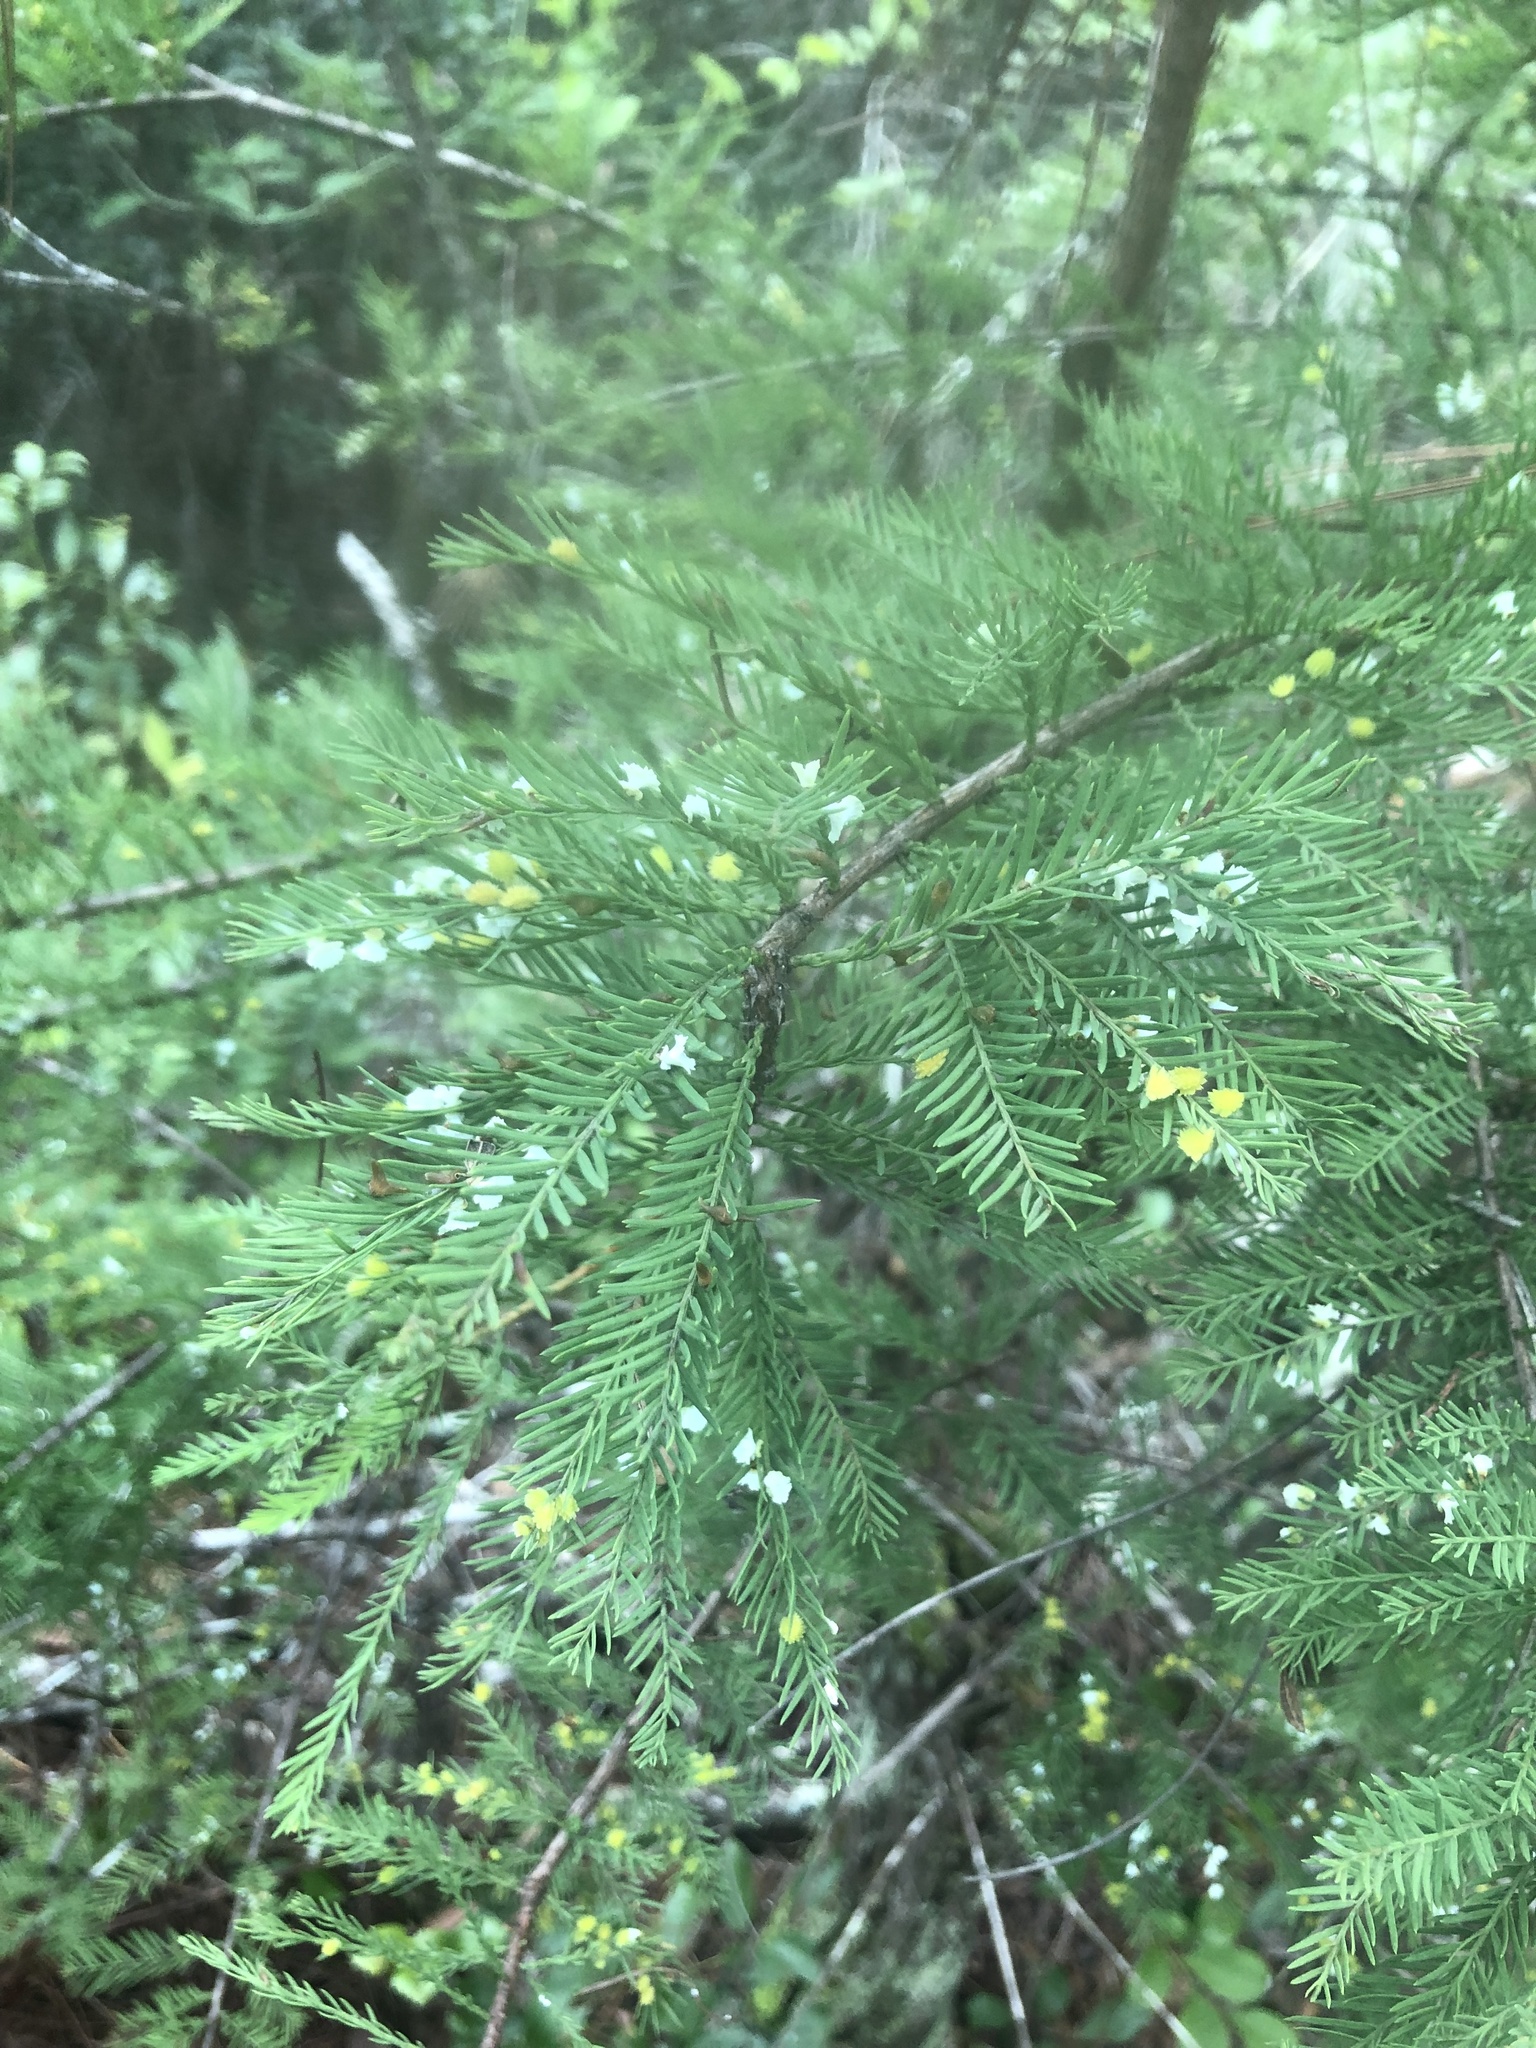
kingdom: Plantae
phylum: Tracheophyta
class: Pinopsida
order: Pinales
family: Cupressaceae
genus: Taxodium
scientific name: Taxodium distichum
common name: Bald cypress
